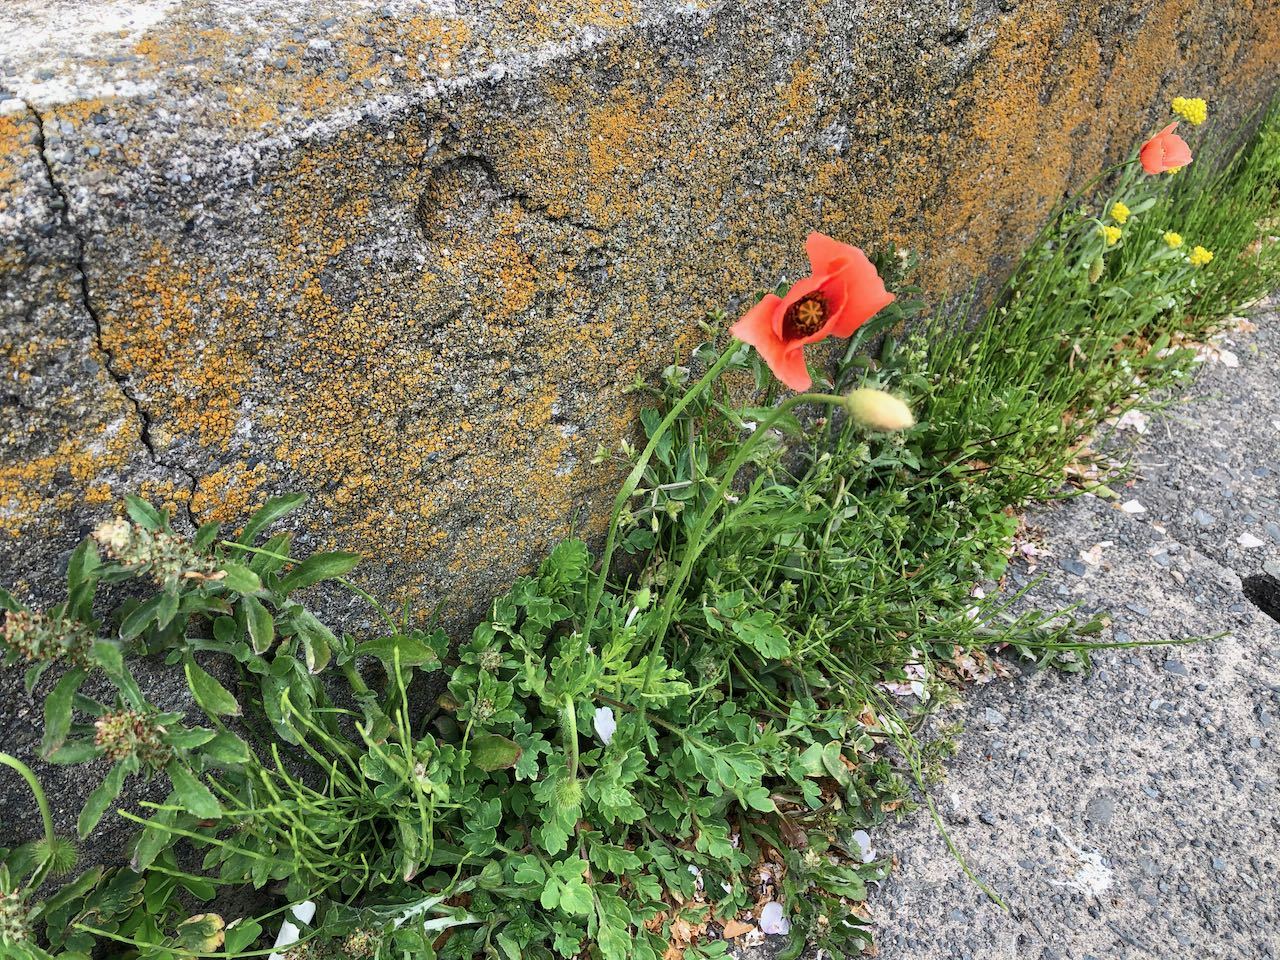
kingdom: Plantae
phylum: Tracheophyta
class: Magnoliopsida
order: Ranunculales
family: Papaveraceae
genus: Papaver
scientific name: Papaver dubium
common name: Long-headed poppy
